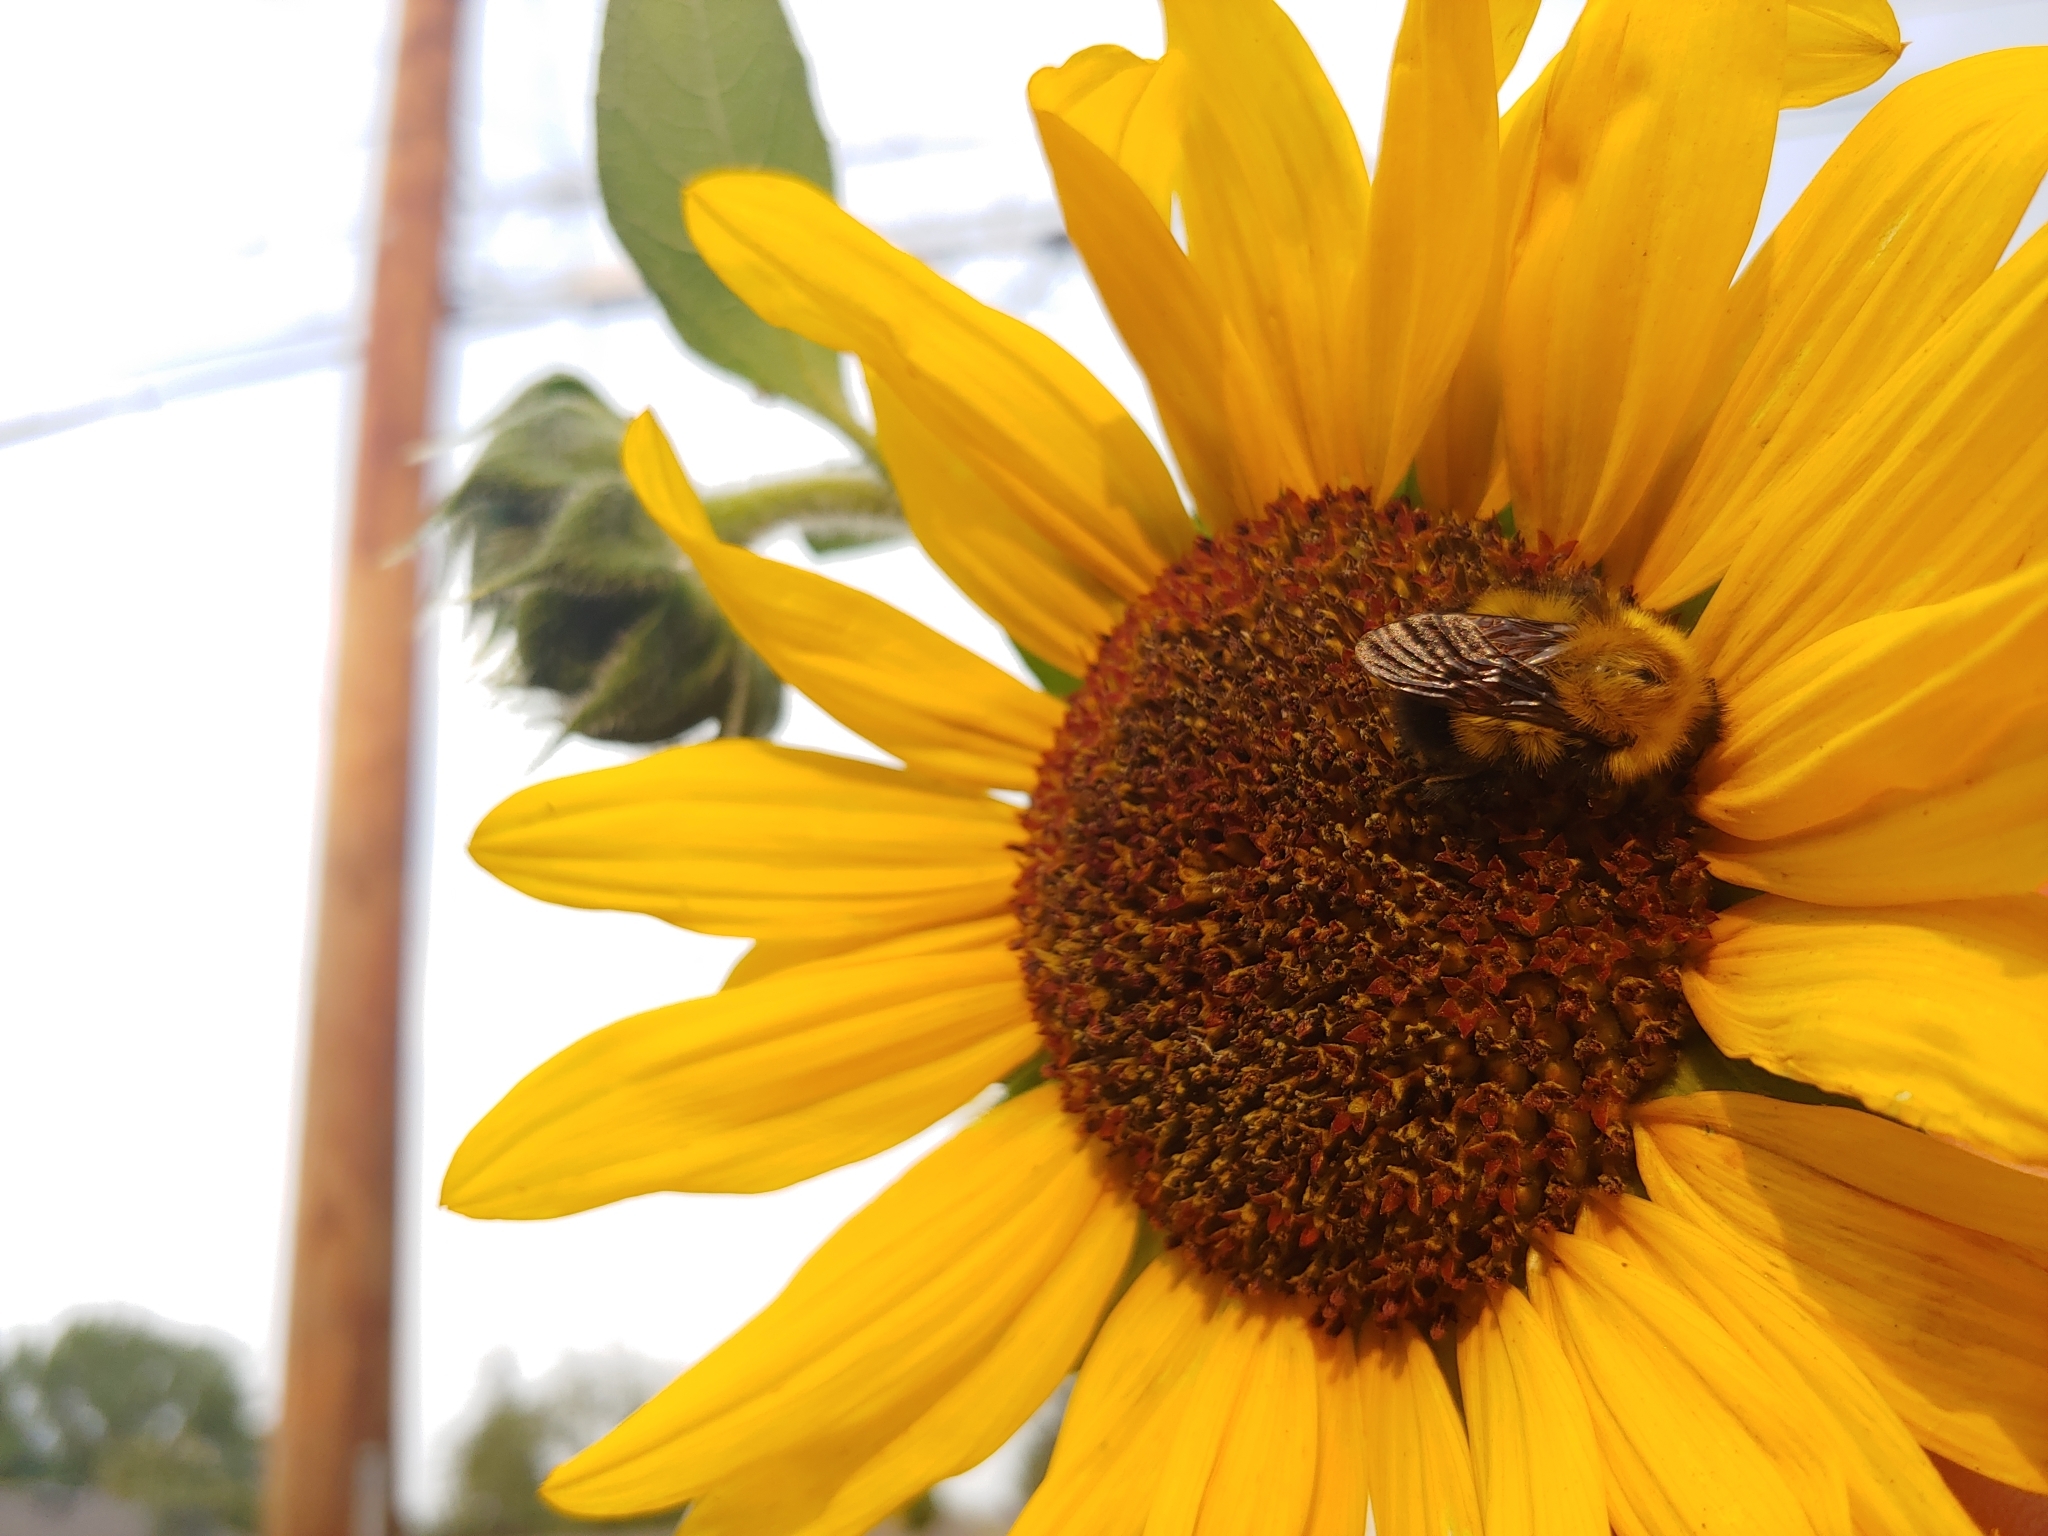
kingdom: Animalia
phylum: Arthropoda
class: Insecta
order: Hymenoptera
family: Apidae
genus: Bombus
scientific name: Bombus perplexus
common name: Confusing bumble bee
